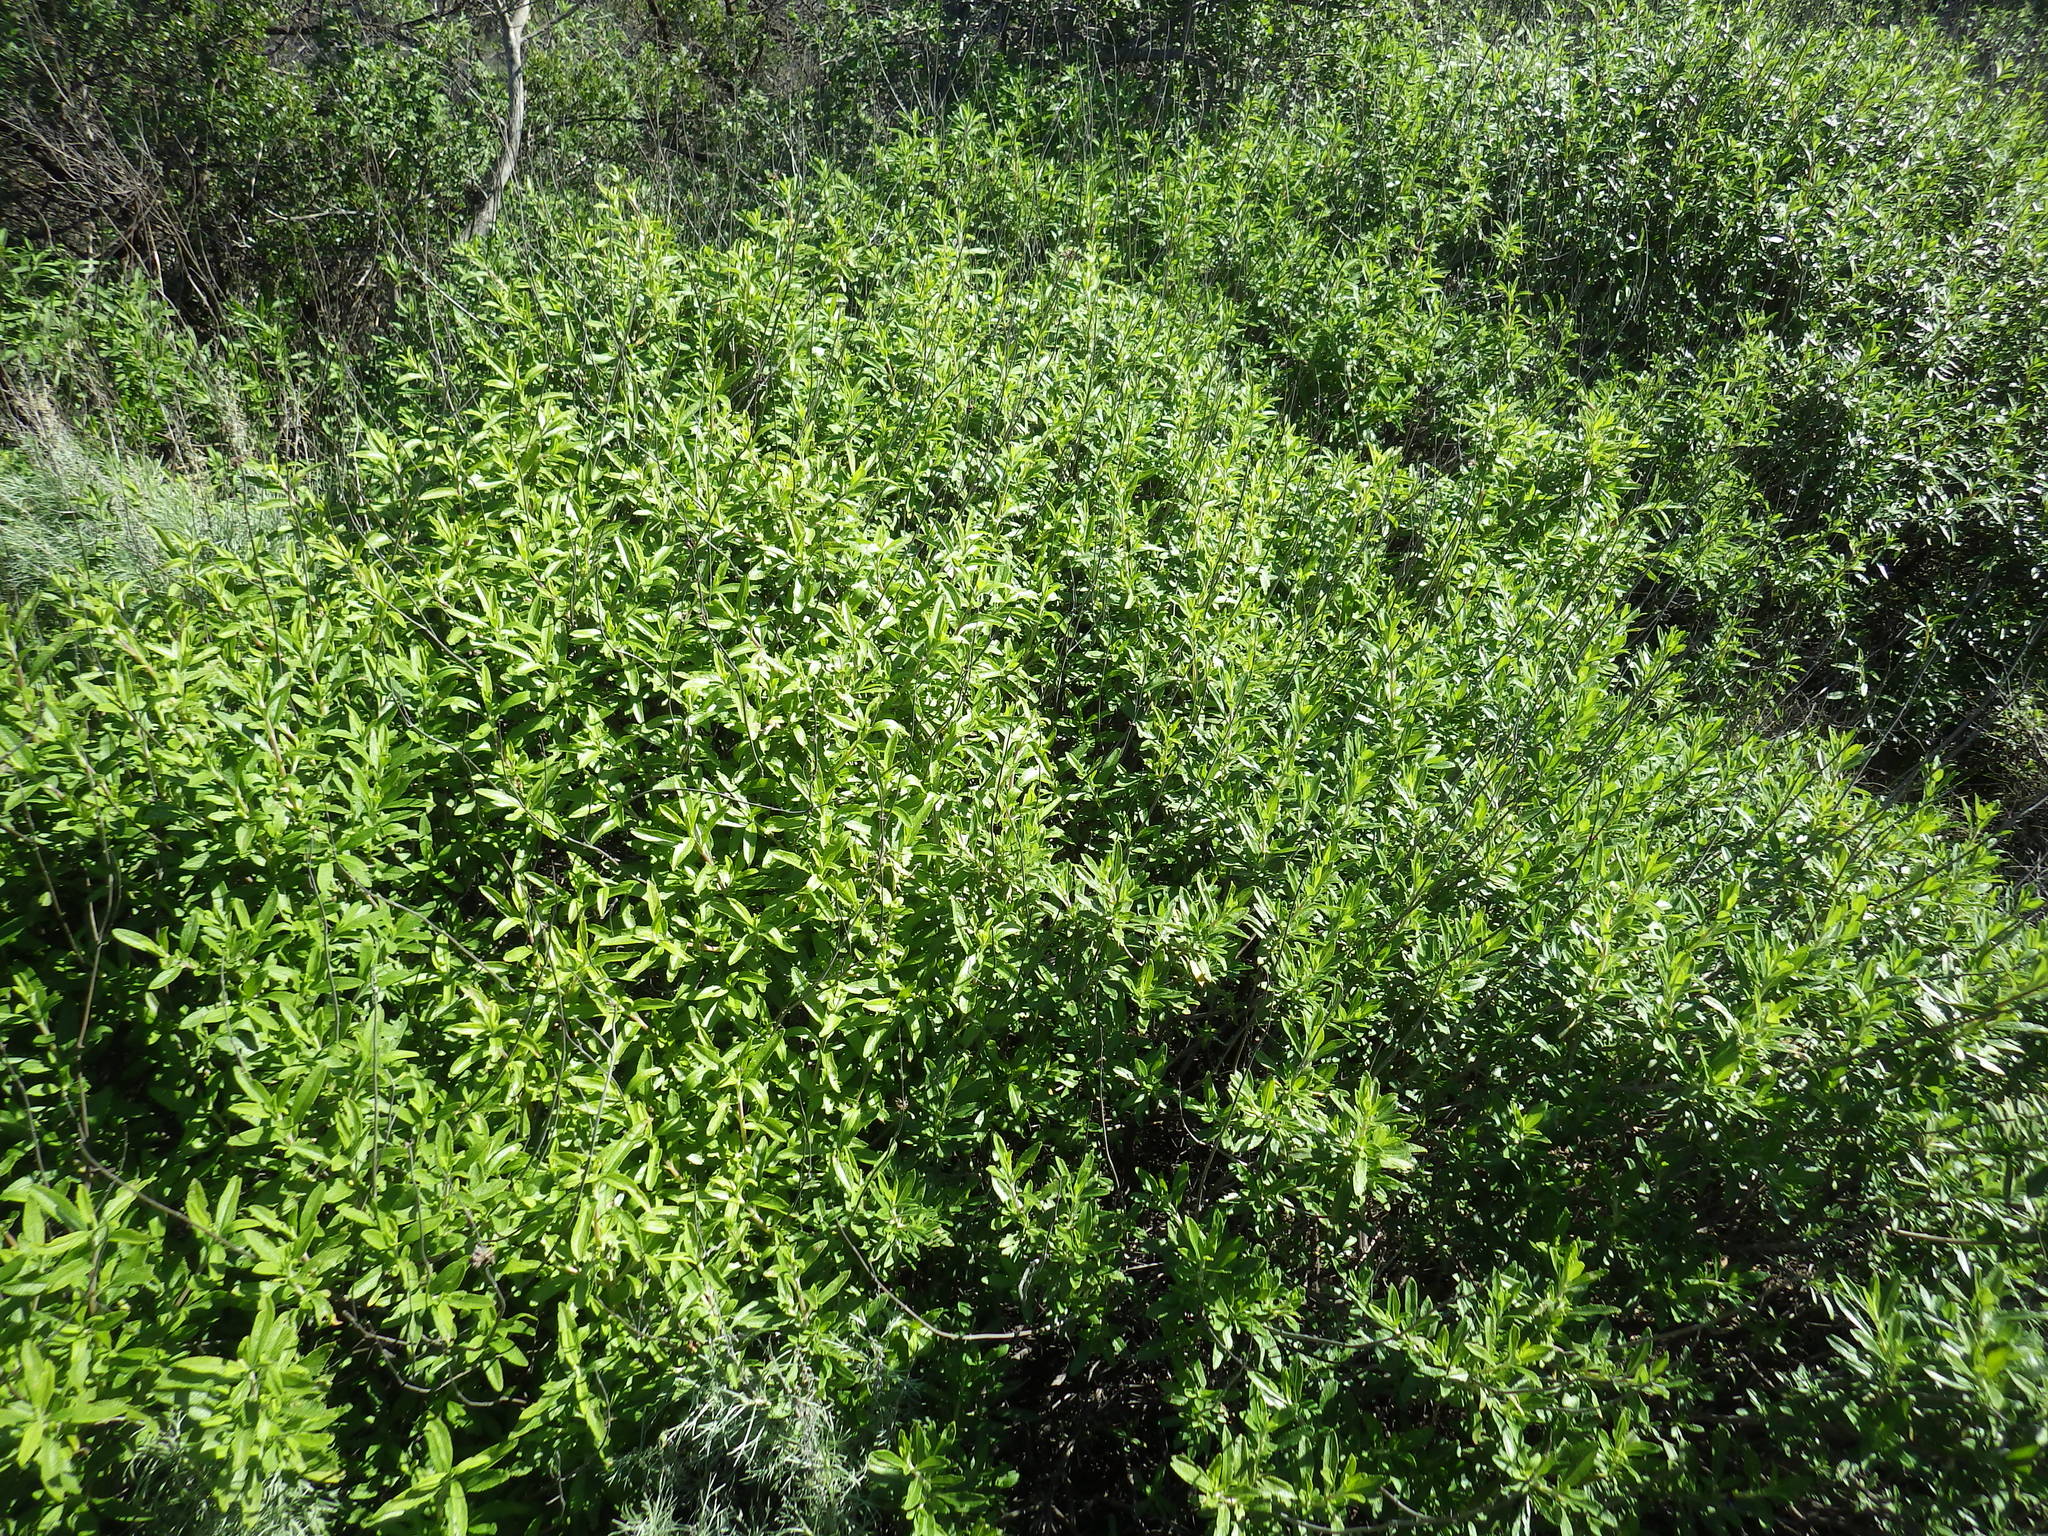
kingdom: Plantae
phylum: Tracheophyta
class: Magnoliopsida
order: Lamiales
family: Lamiaceae
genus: Salvia
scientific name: Salvia mellifera
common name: Black sage
